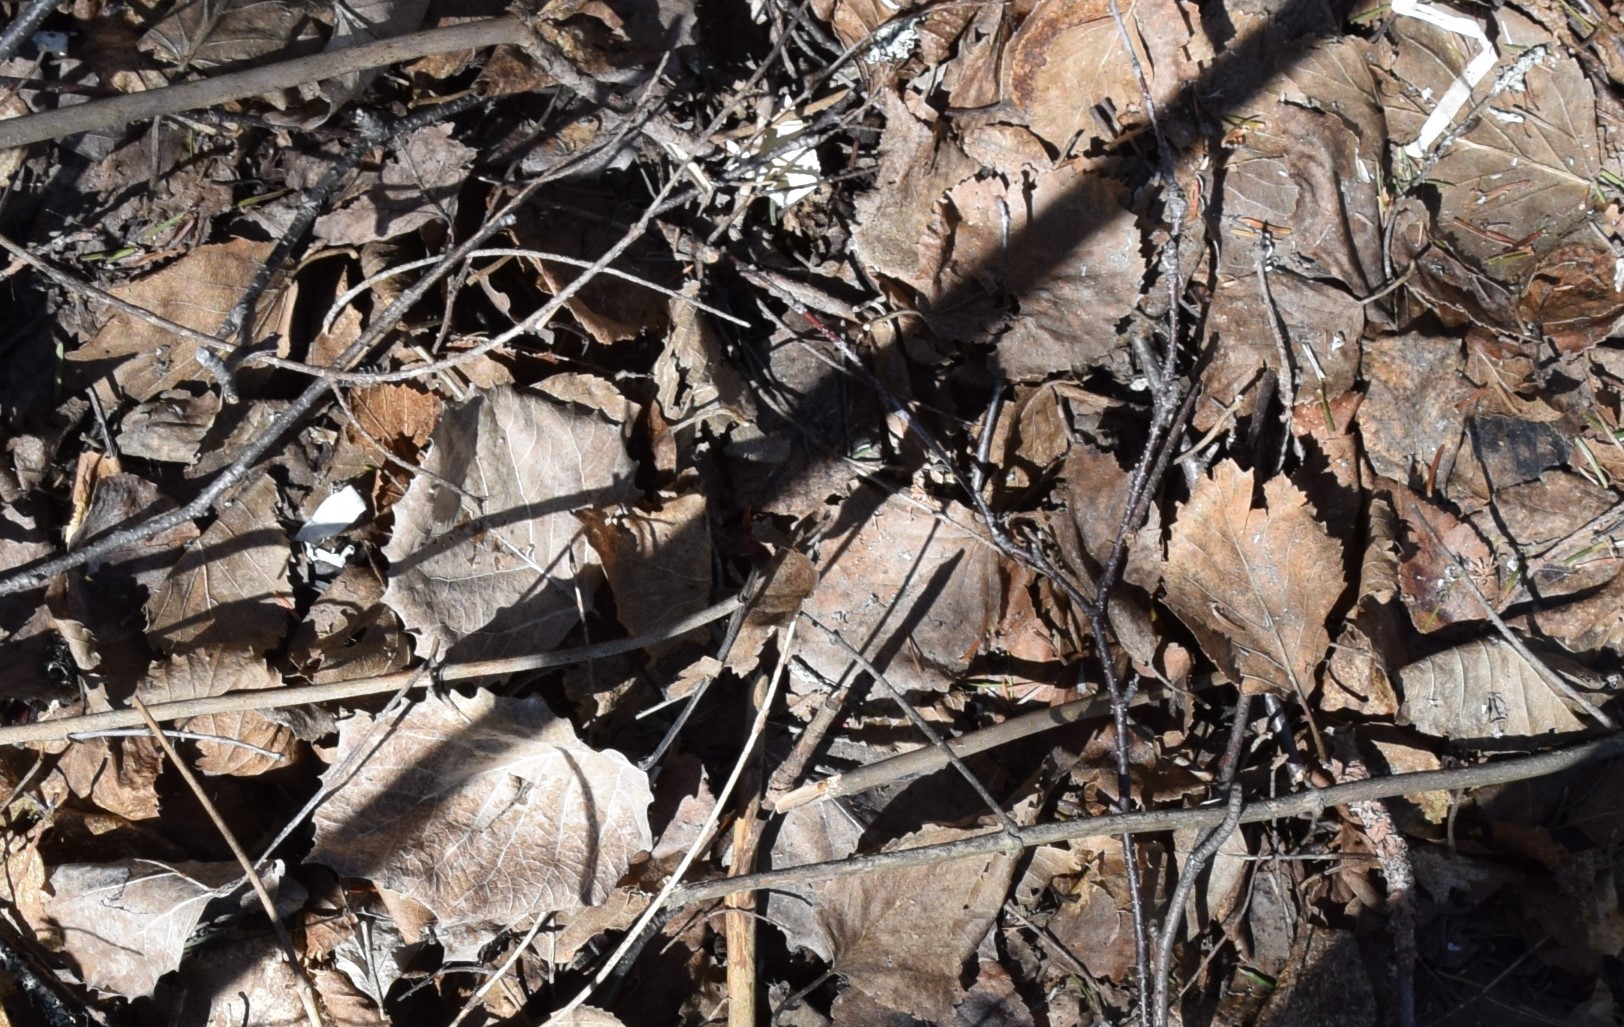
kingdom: Plantae
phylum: Tracheophyta
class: Magnoliopsida
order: Malpighiales
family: Salicaceae
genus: Populus
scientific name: Populus grandidentata
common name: Bigtooth aspen
